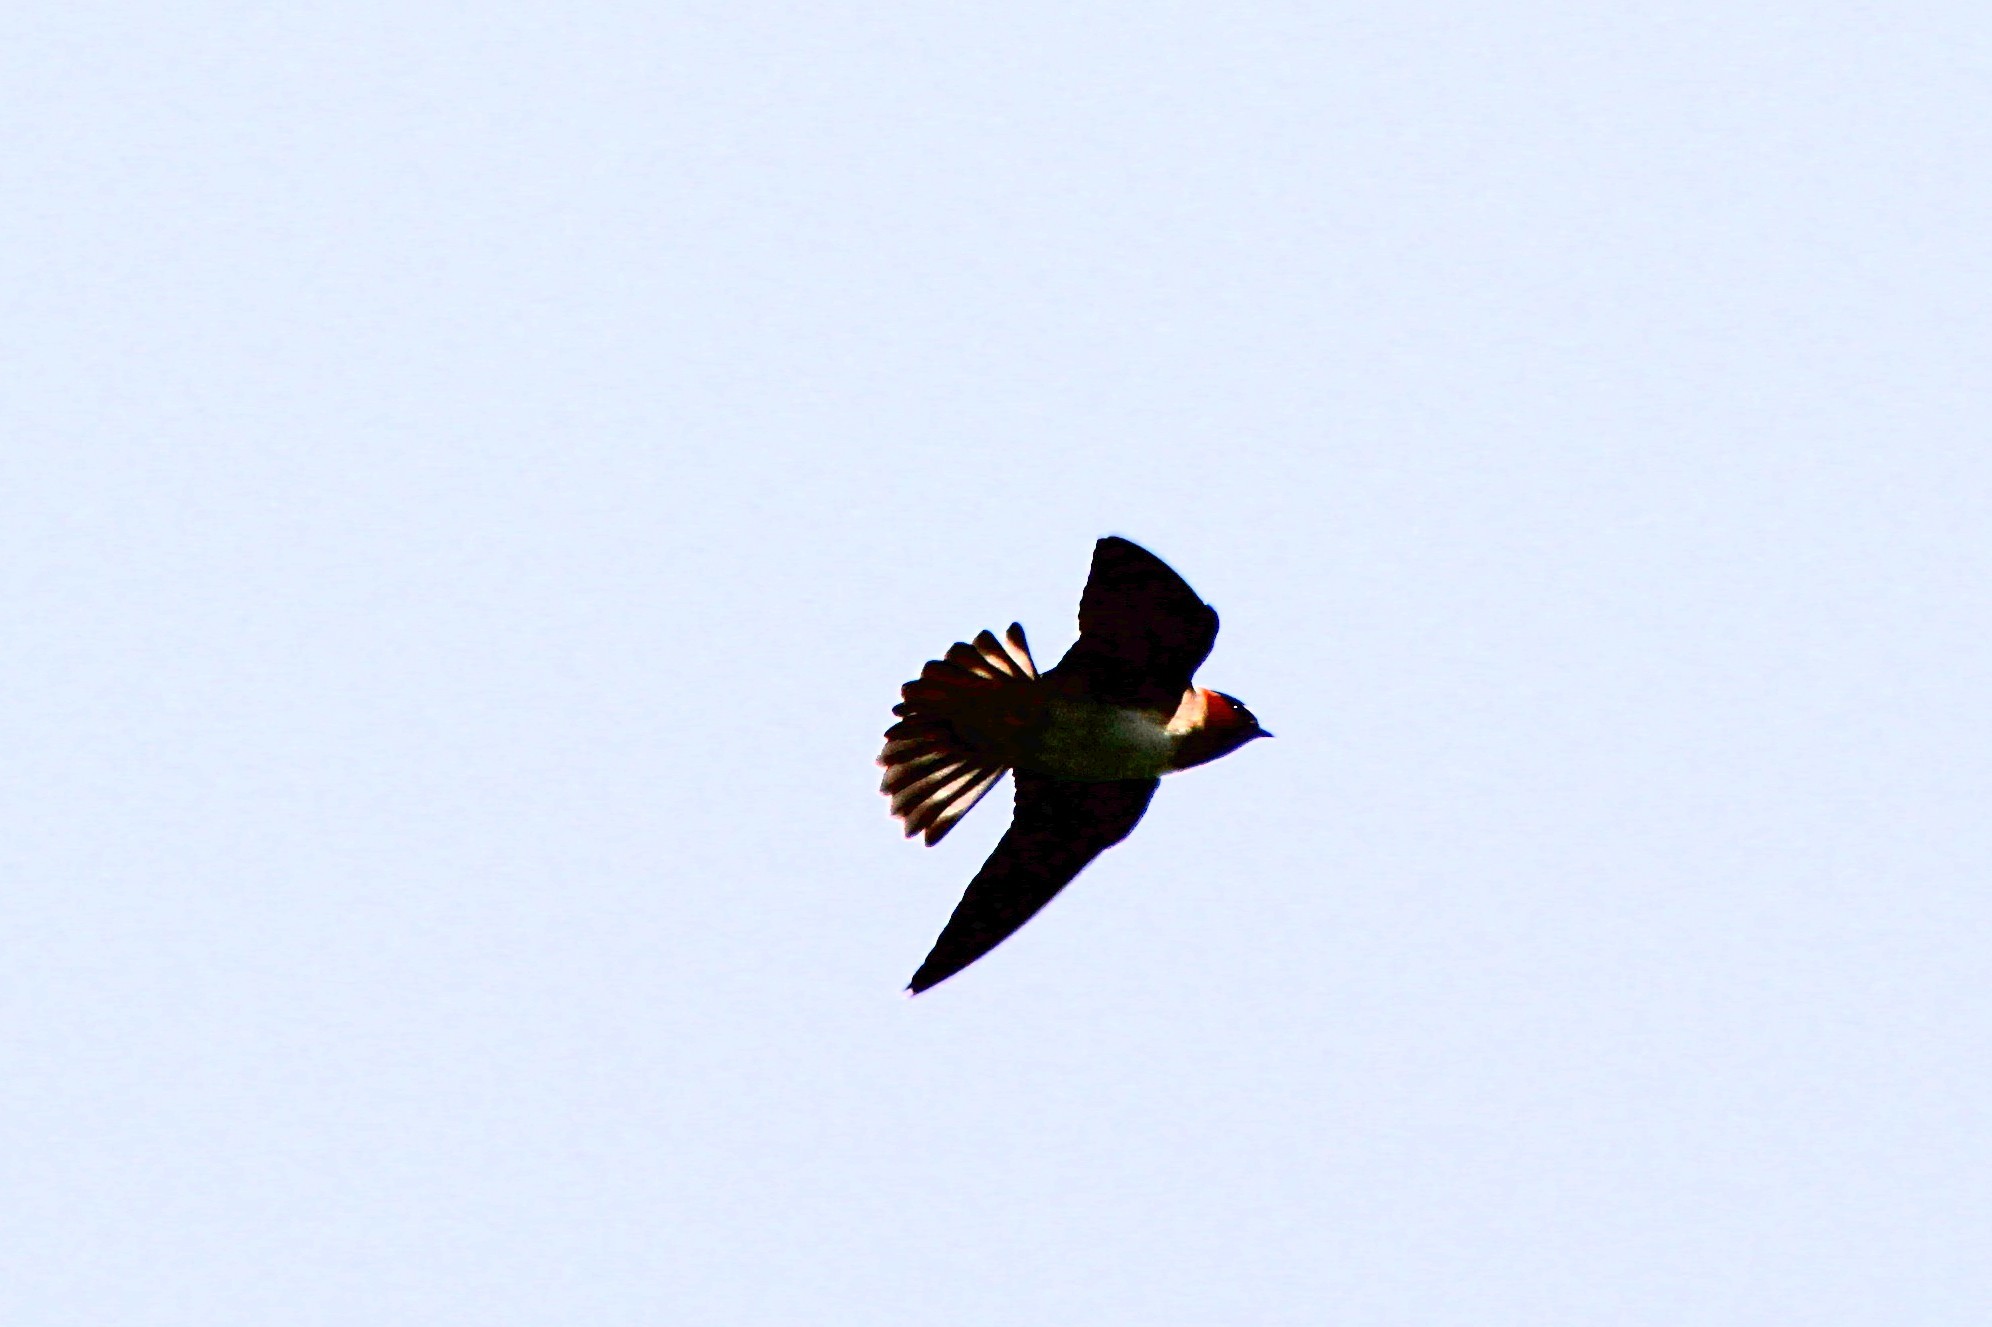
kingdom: Animalia
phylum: Chordata
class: Aves
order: Passeriformes
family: Hirundinidae
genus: Petrochelidon
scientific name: Petrochelidon pyrrhonota
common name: American cliff swallow
